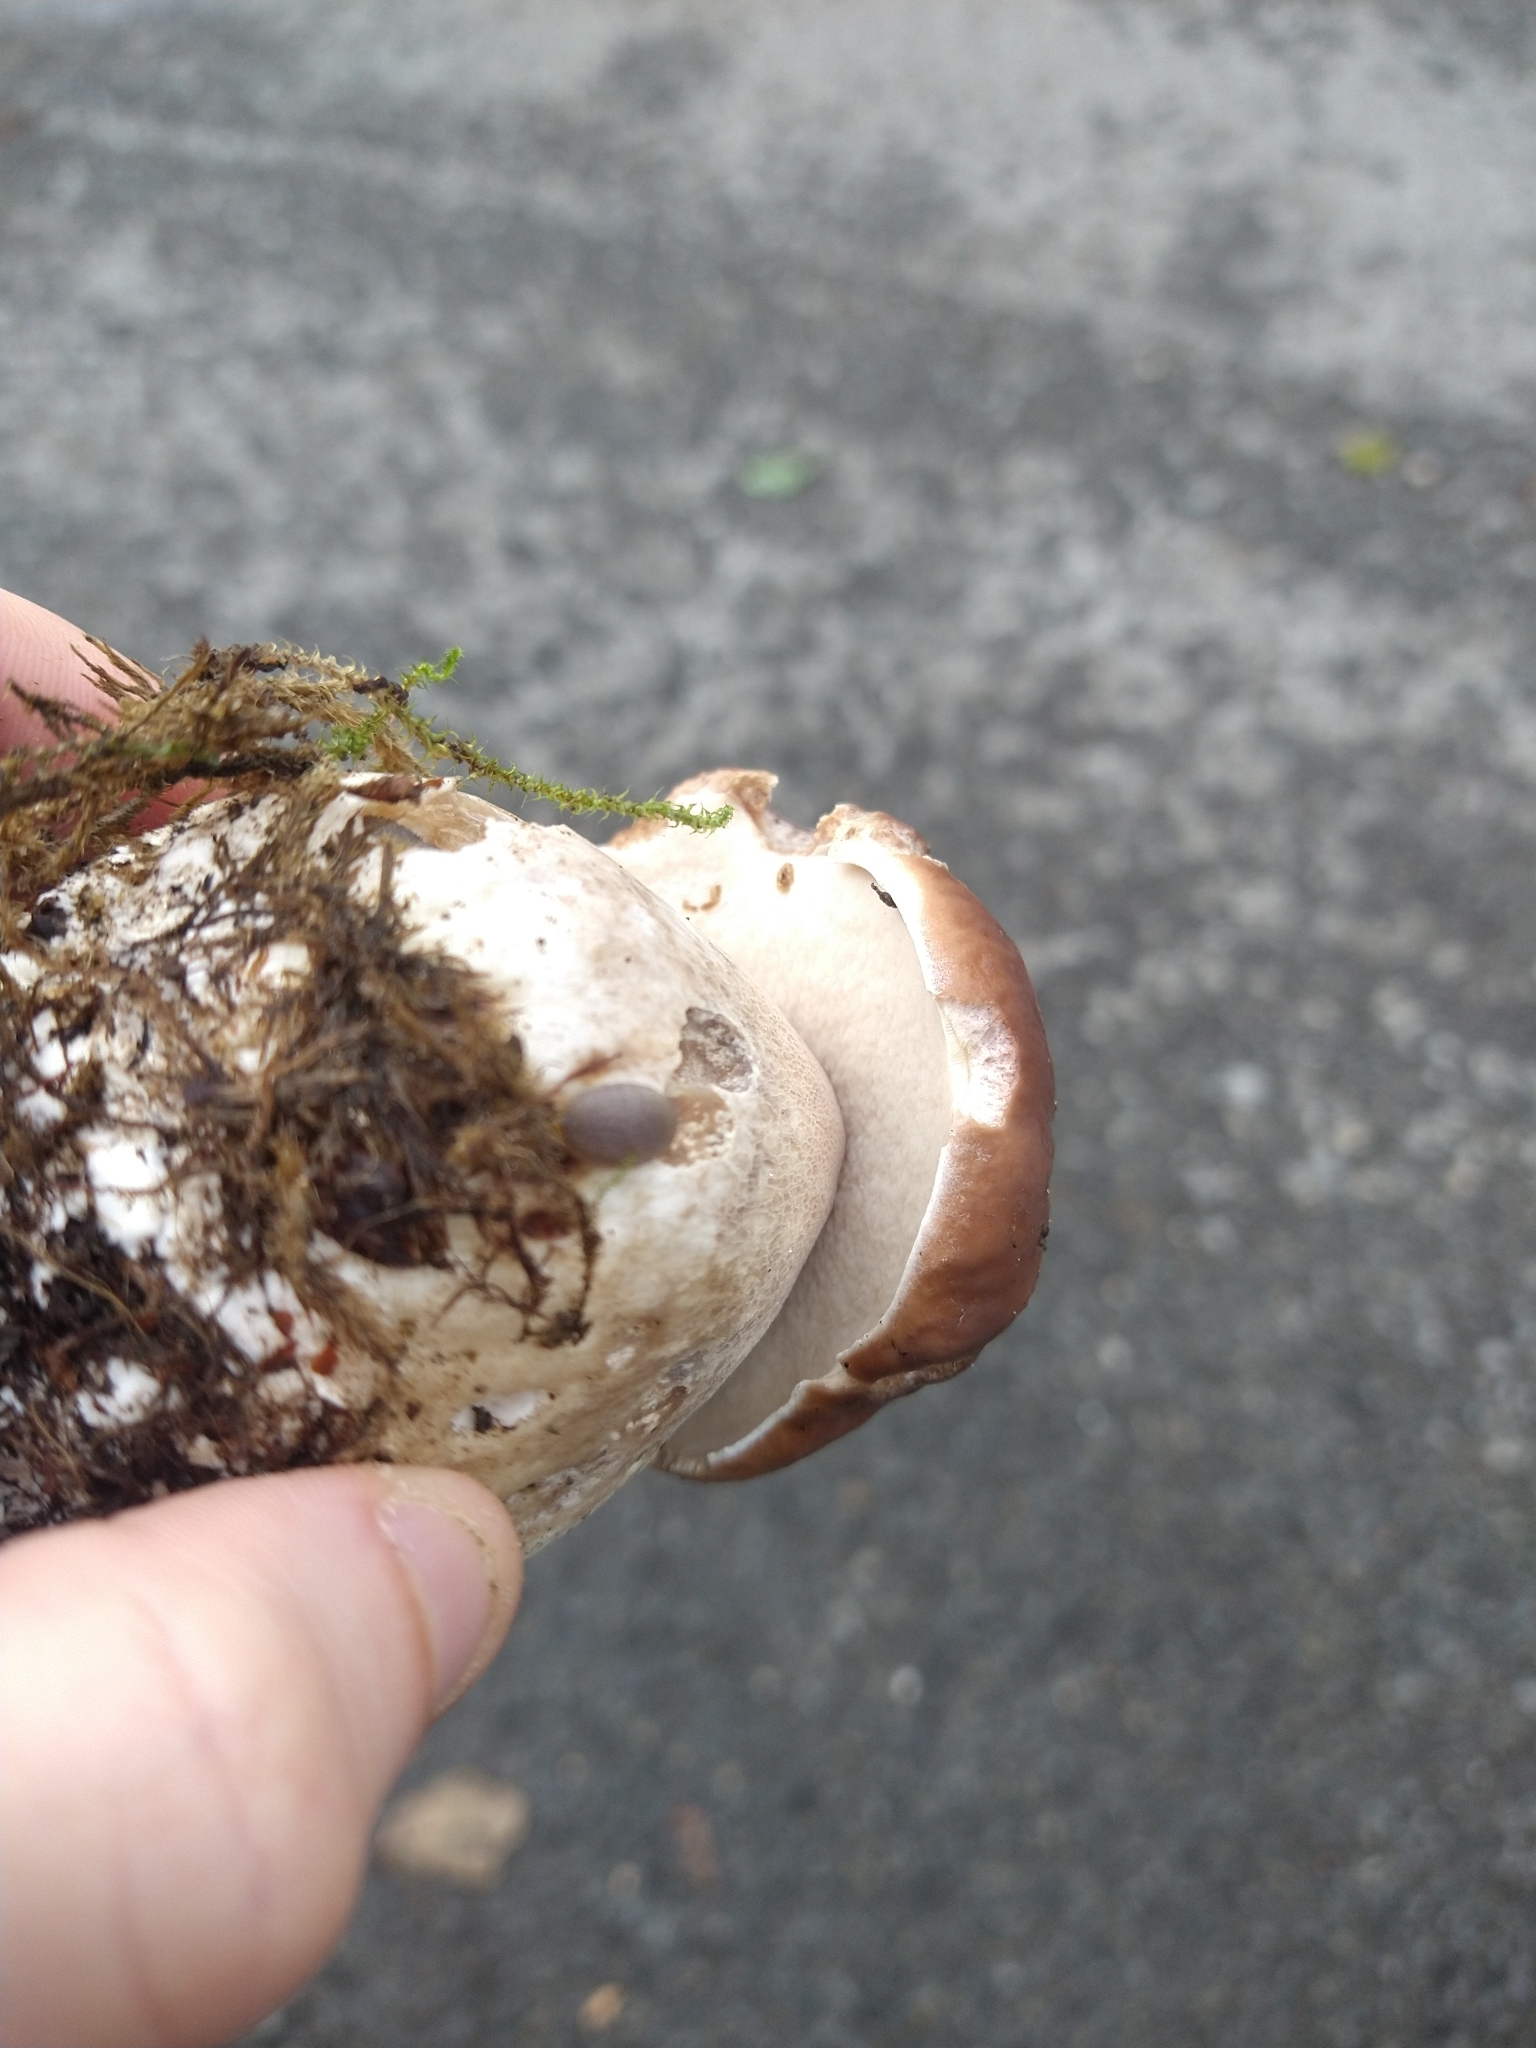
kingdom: Fungi
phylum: Basidiomycota
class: Agaricomycetes
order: Boletales
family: Boletaceae
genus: Boletus
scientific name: Boletus edulis
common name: Cep
